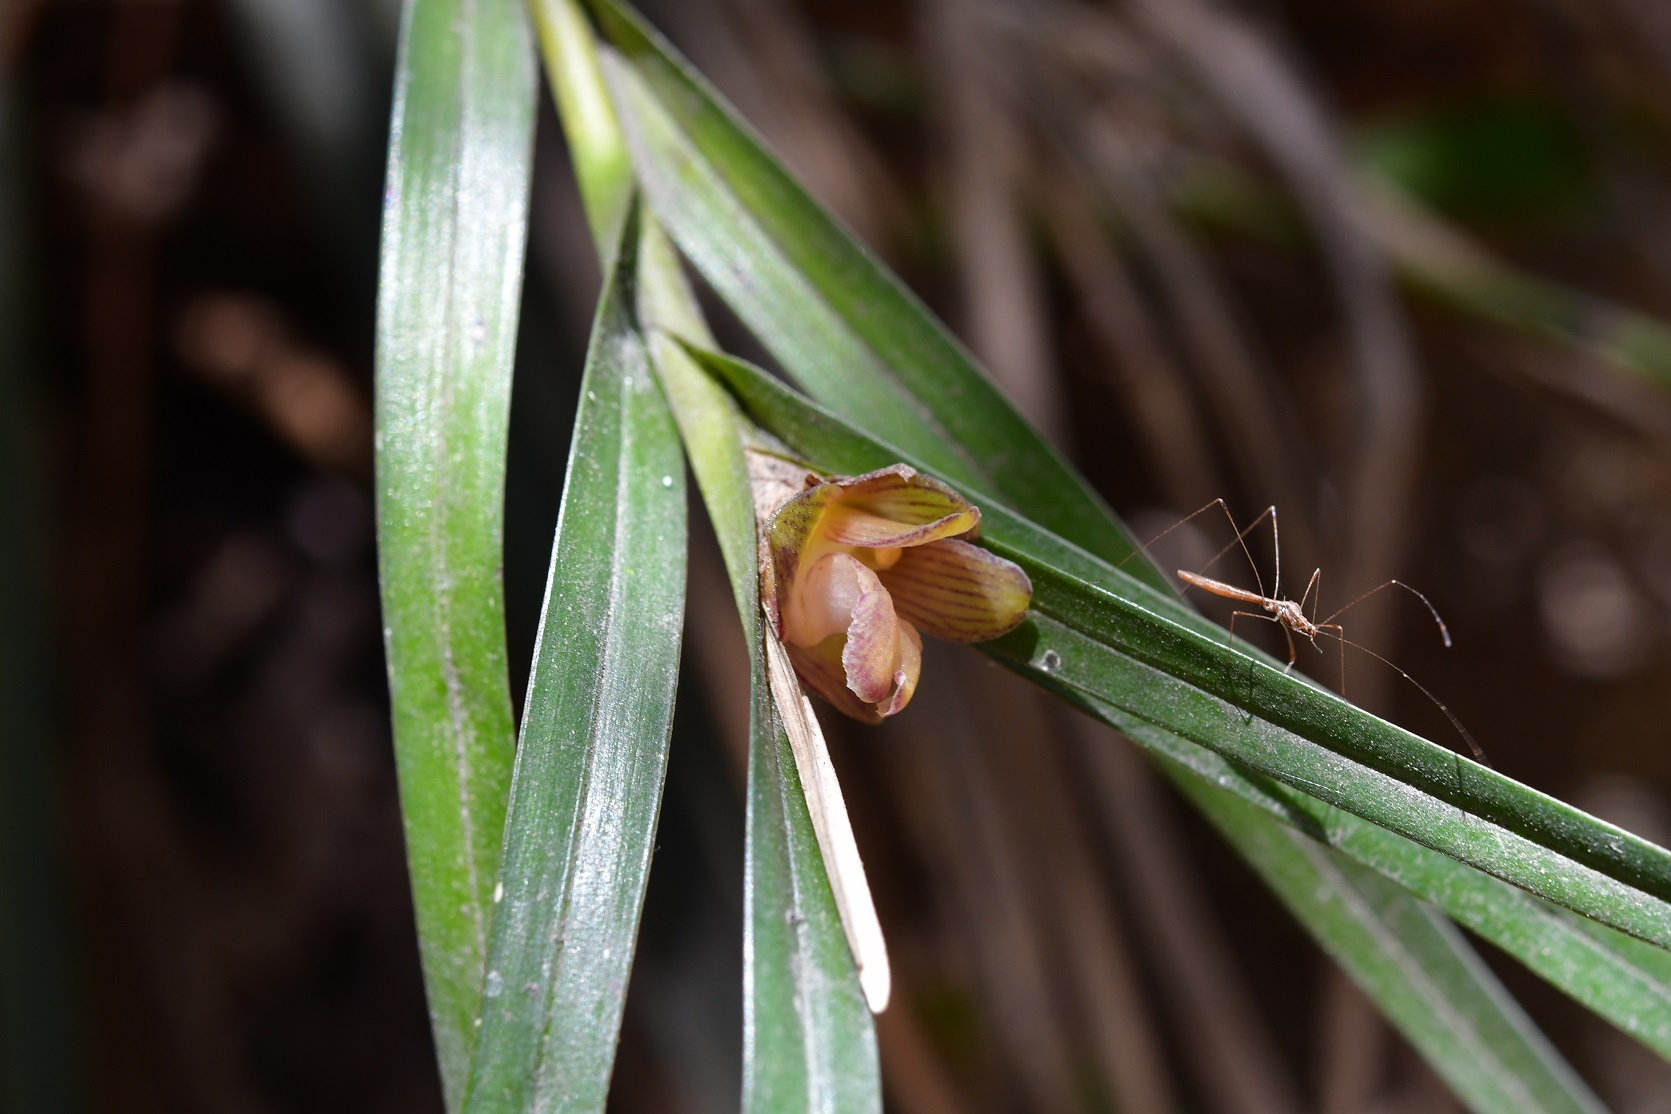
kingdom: Plantae
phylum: Tracheophyta
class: Liliopsida
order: Asparagales
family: Orchidaceae
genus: Nemaconia
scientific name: Nemaconia striata
